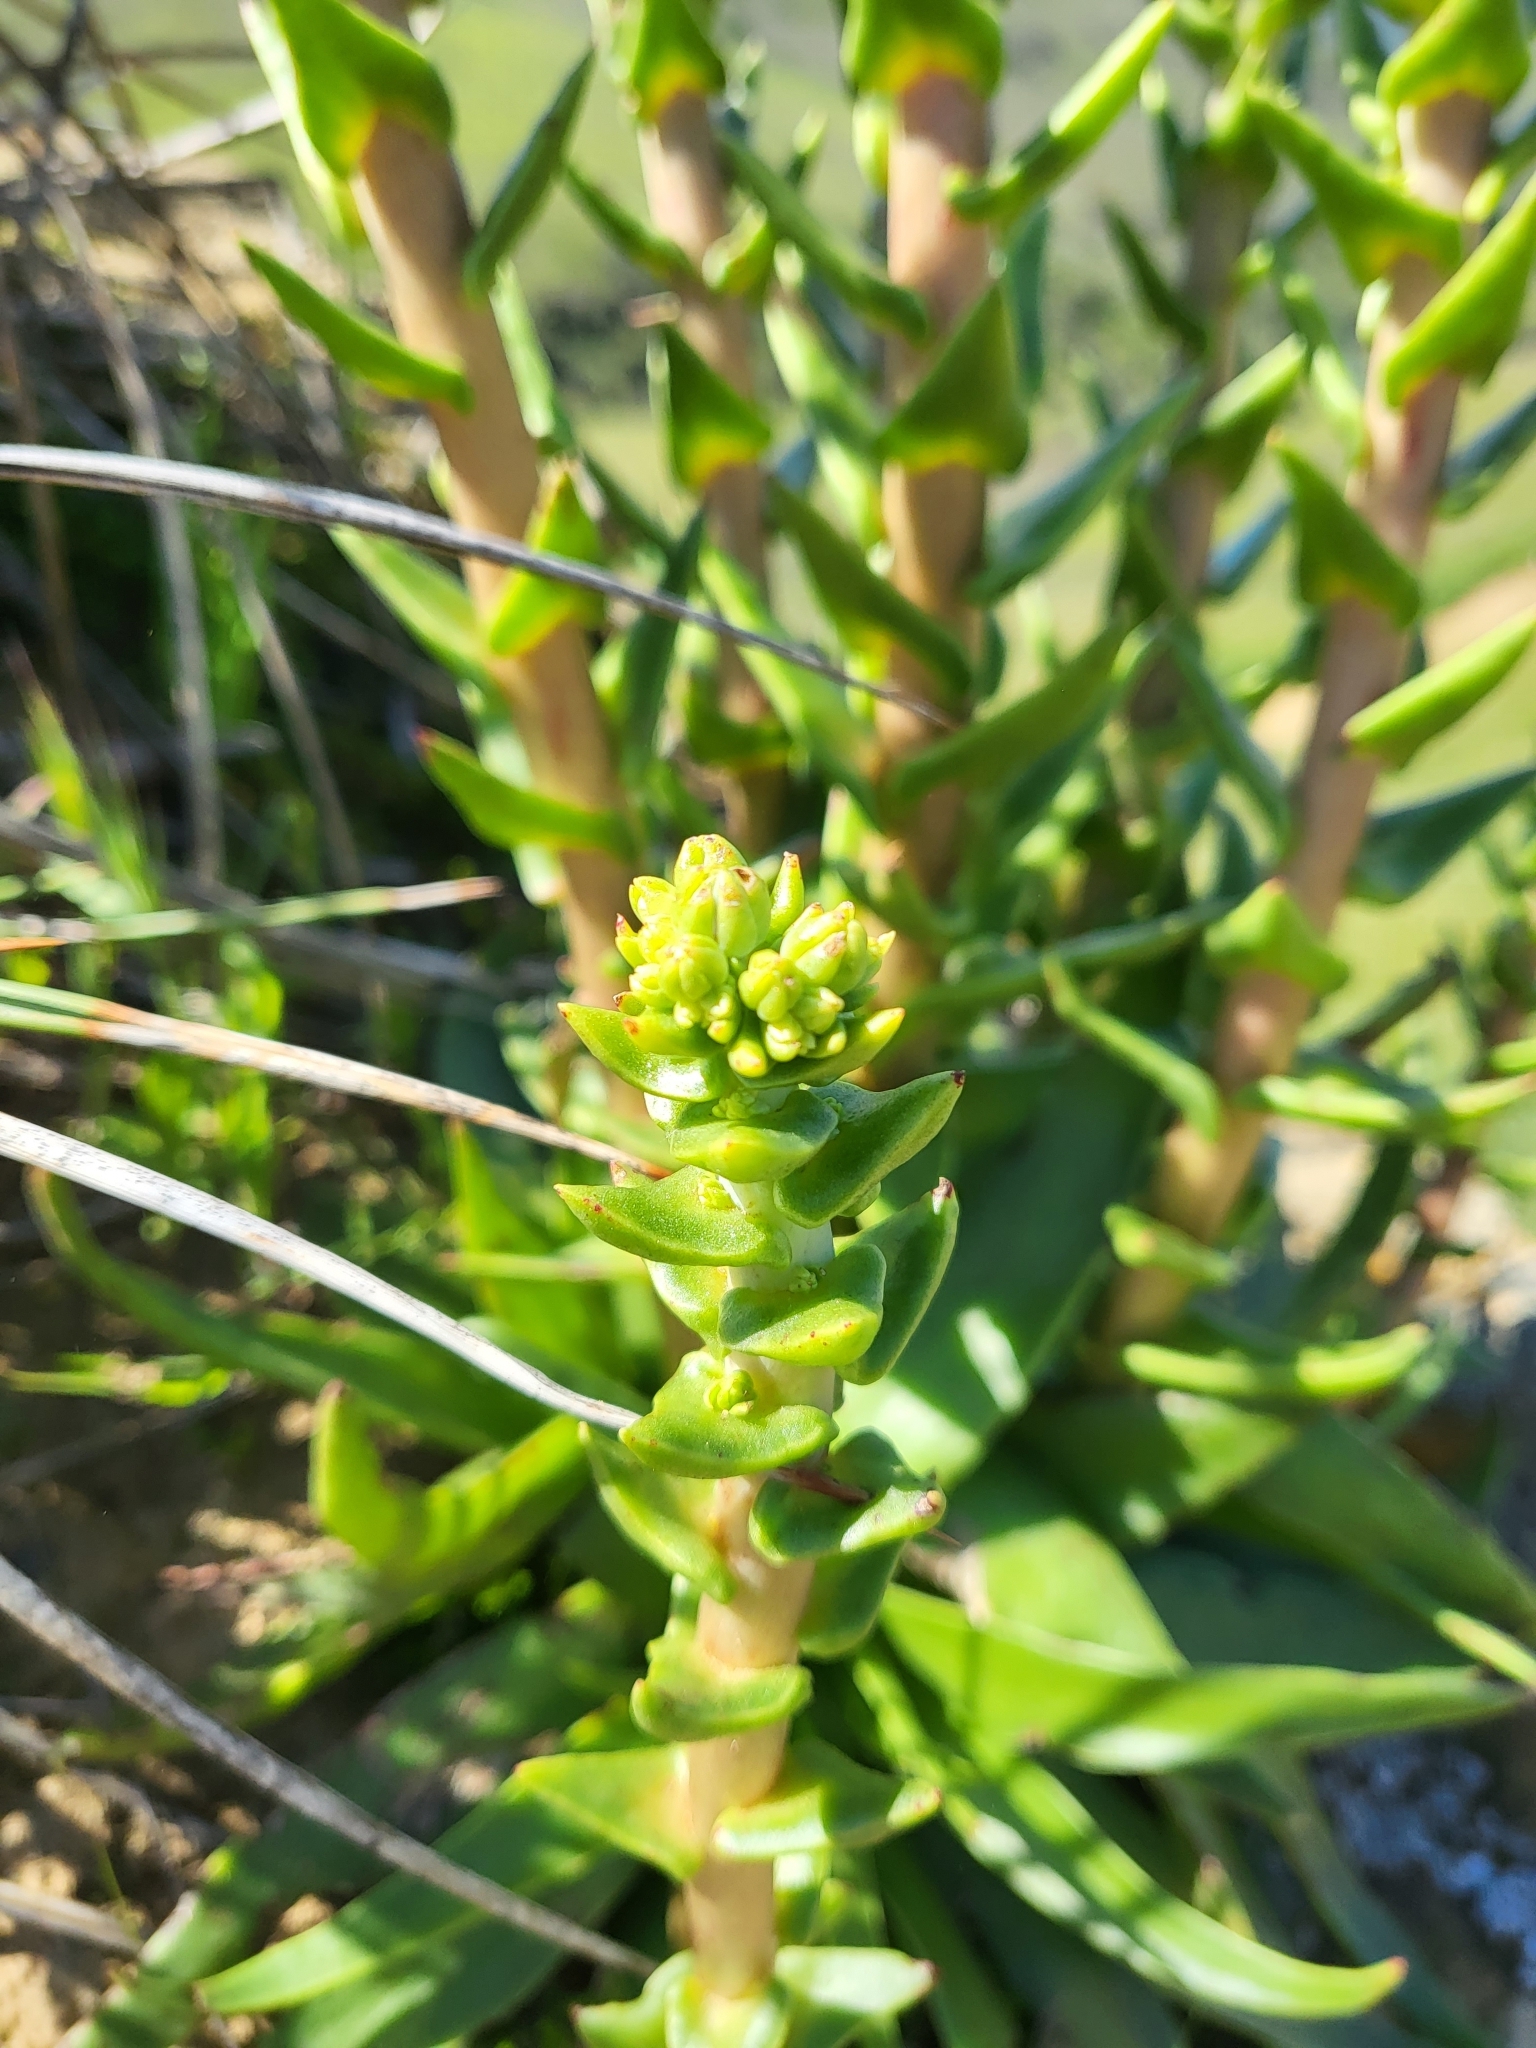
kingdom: Plantae
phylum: Tracheophyta
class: Magnoliopsida
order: Saxifragales
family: Crassulaceae
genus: Dudleya
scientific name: Dudleya lanceolata
